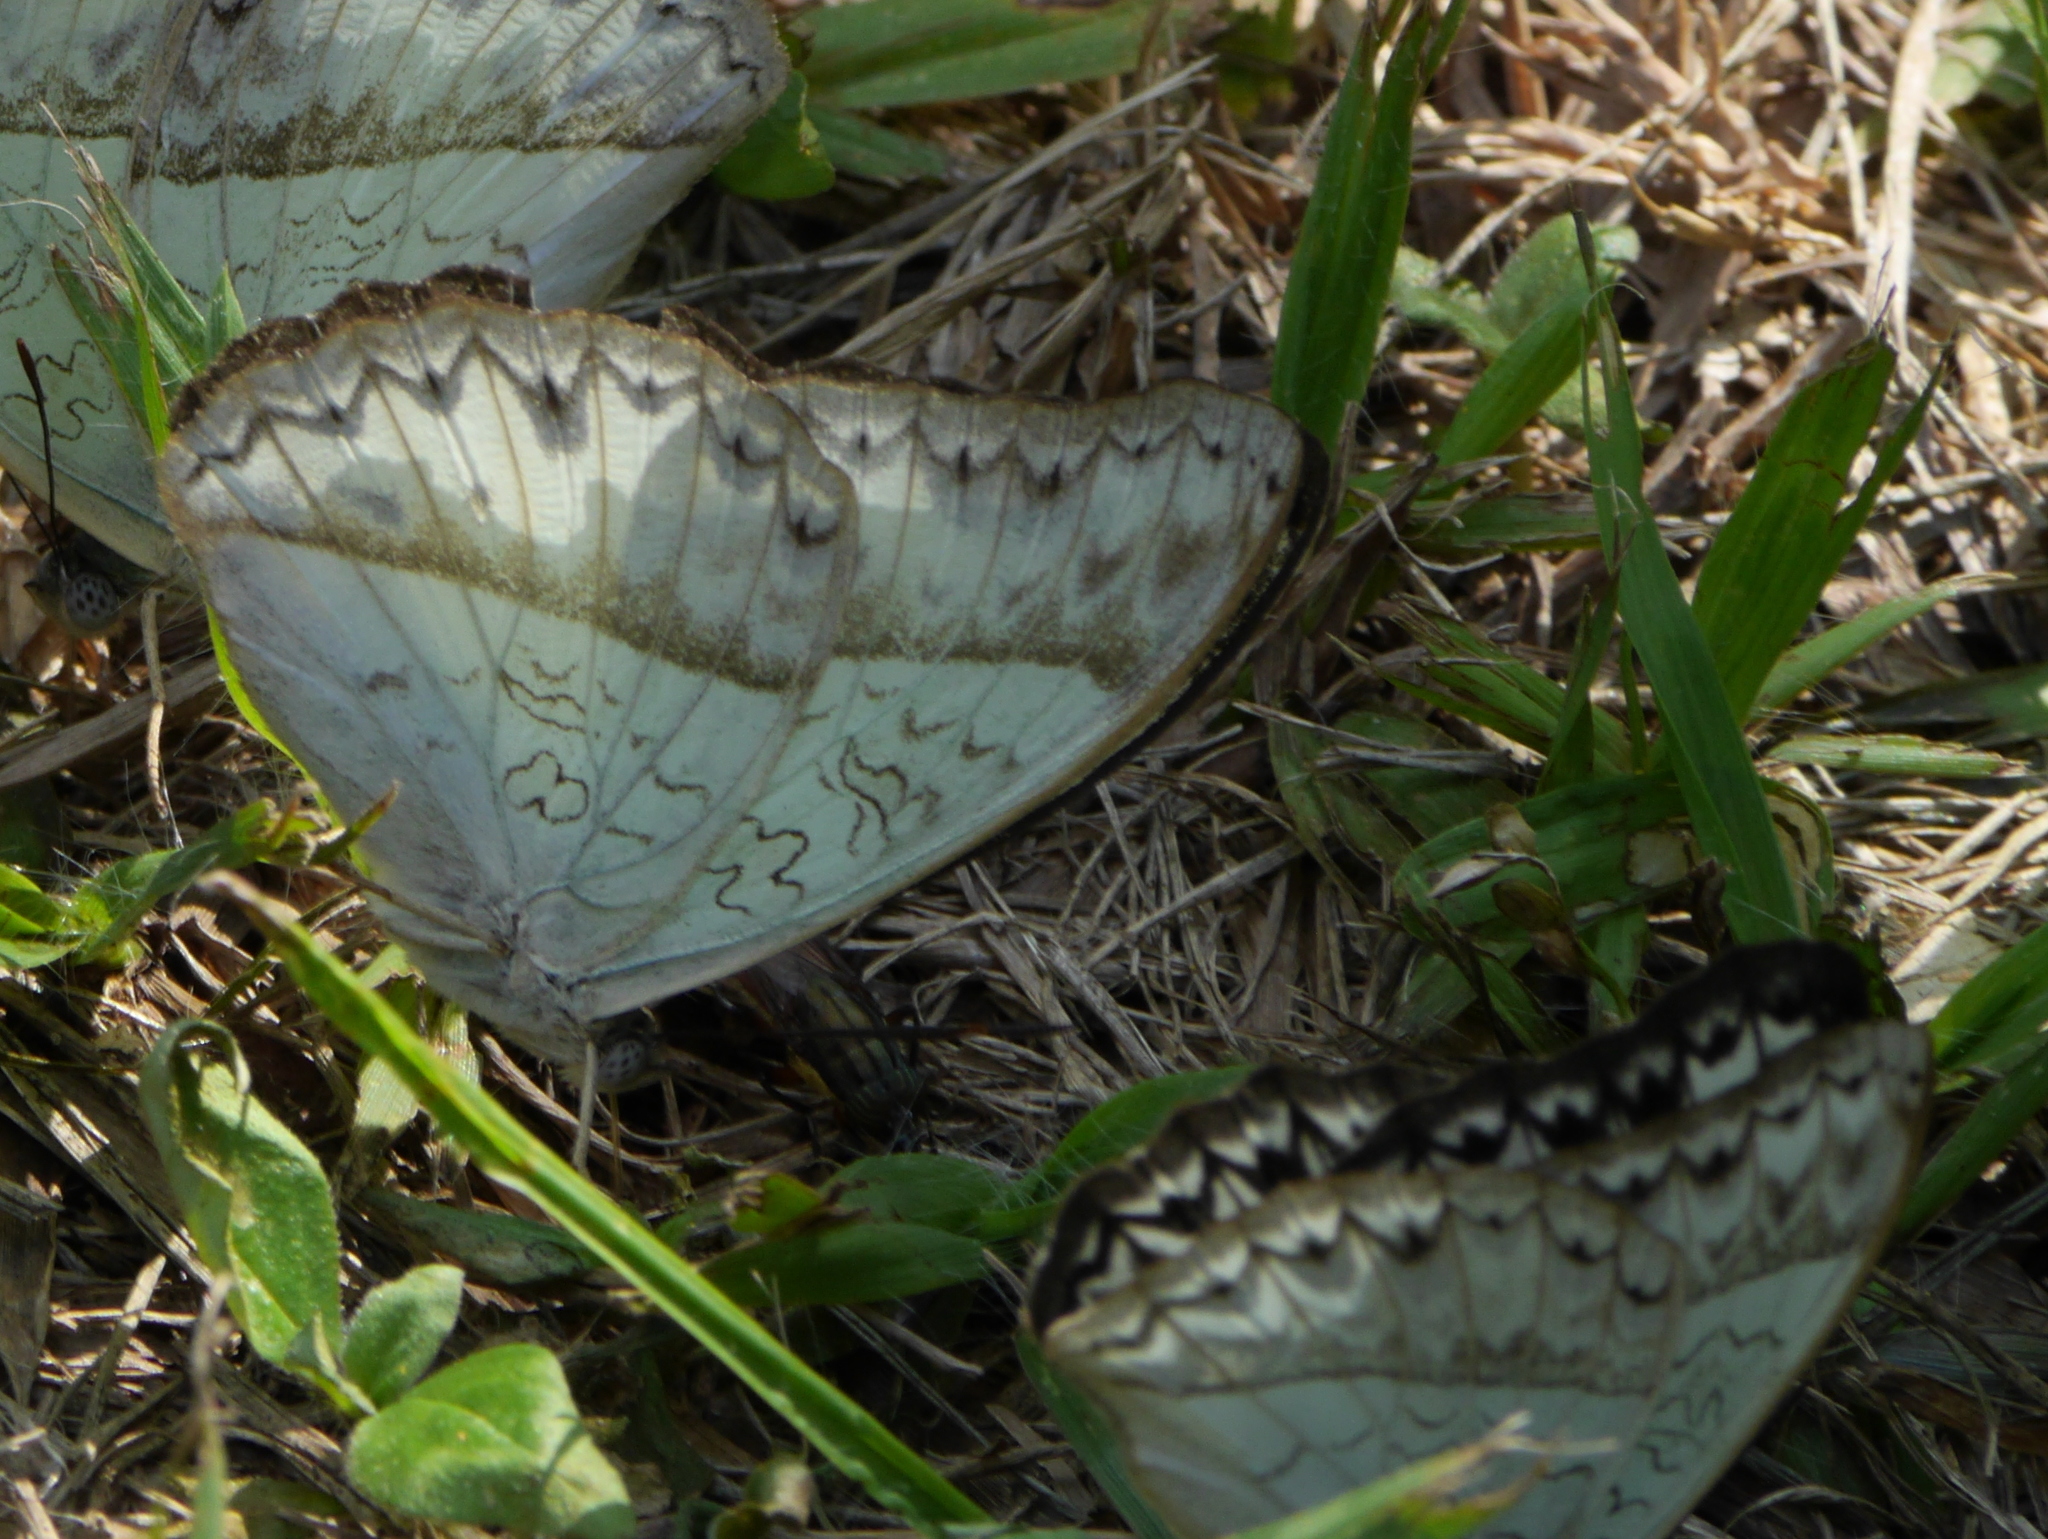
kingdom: Animalia
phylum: Arthropoda
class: Insecta
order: Lepidoptera
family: Nymphalidae
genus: Cymothoe
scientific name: Cymothoe caenis
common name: Common glider
